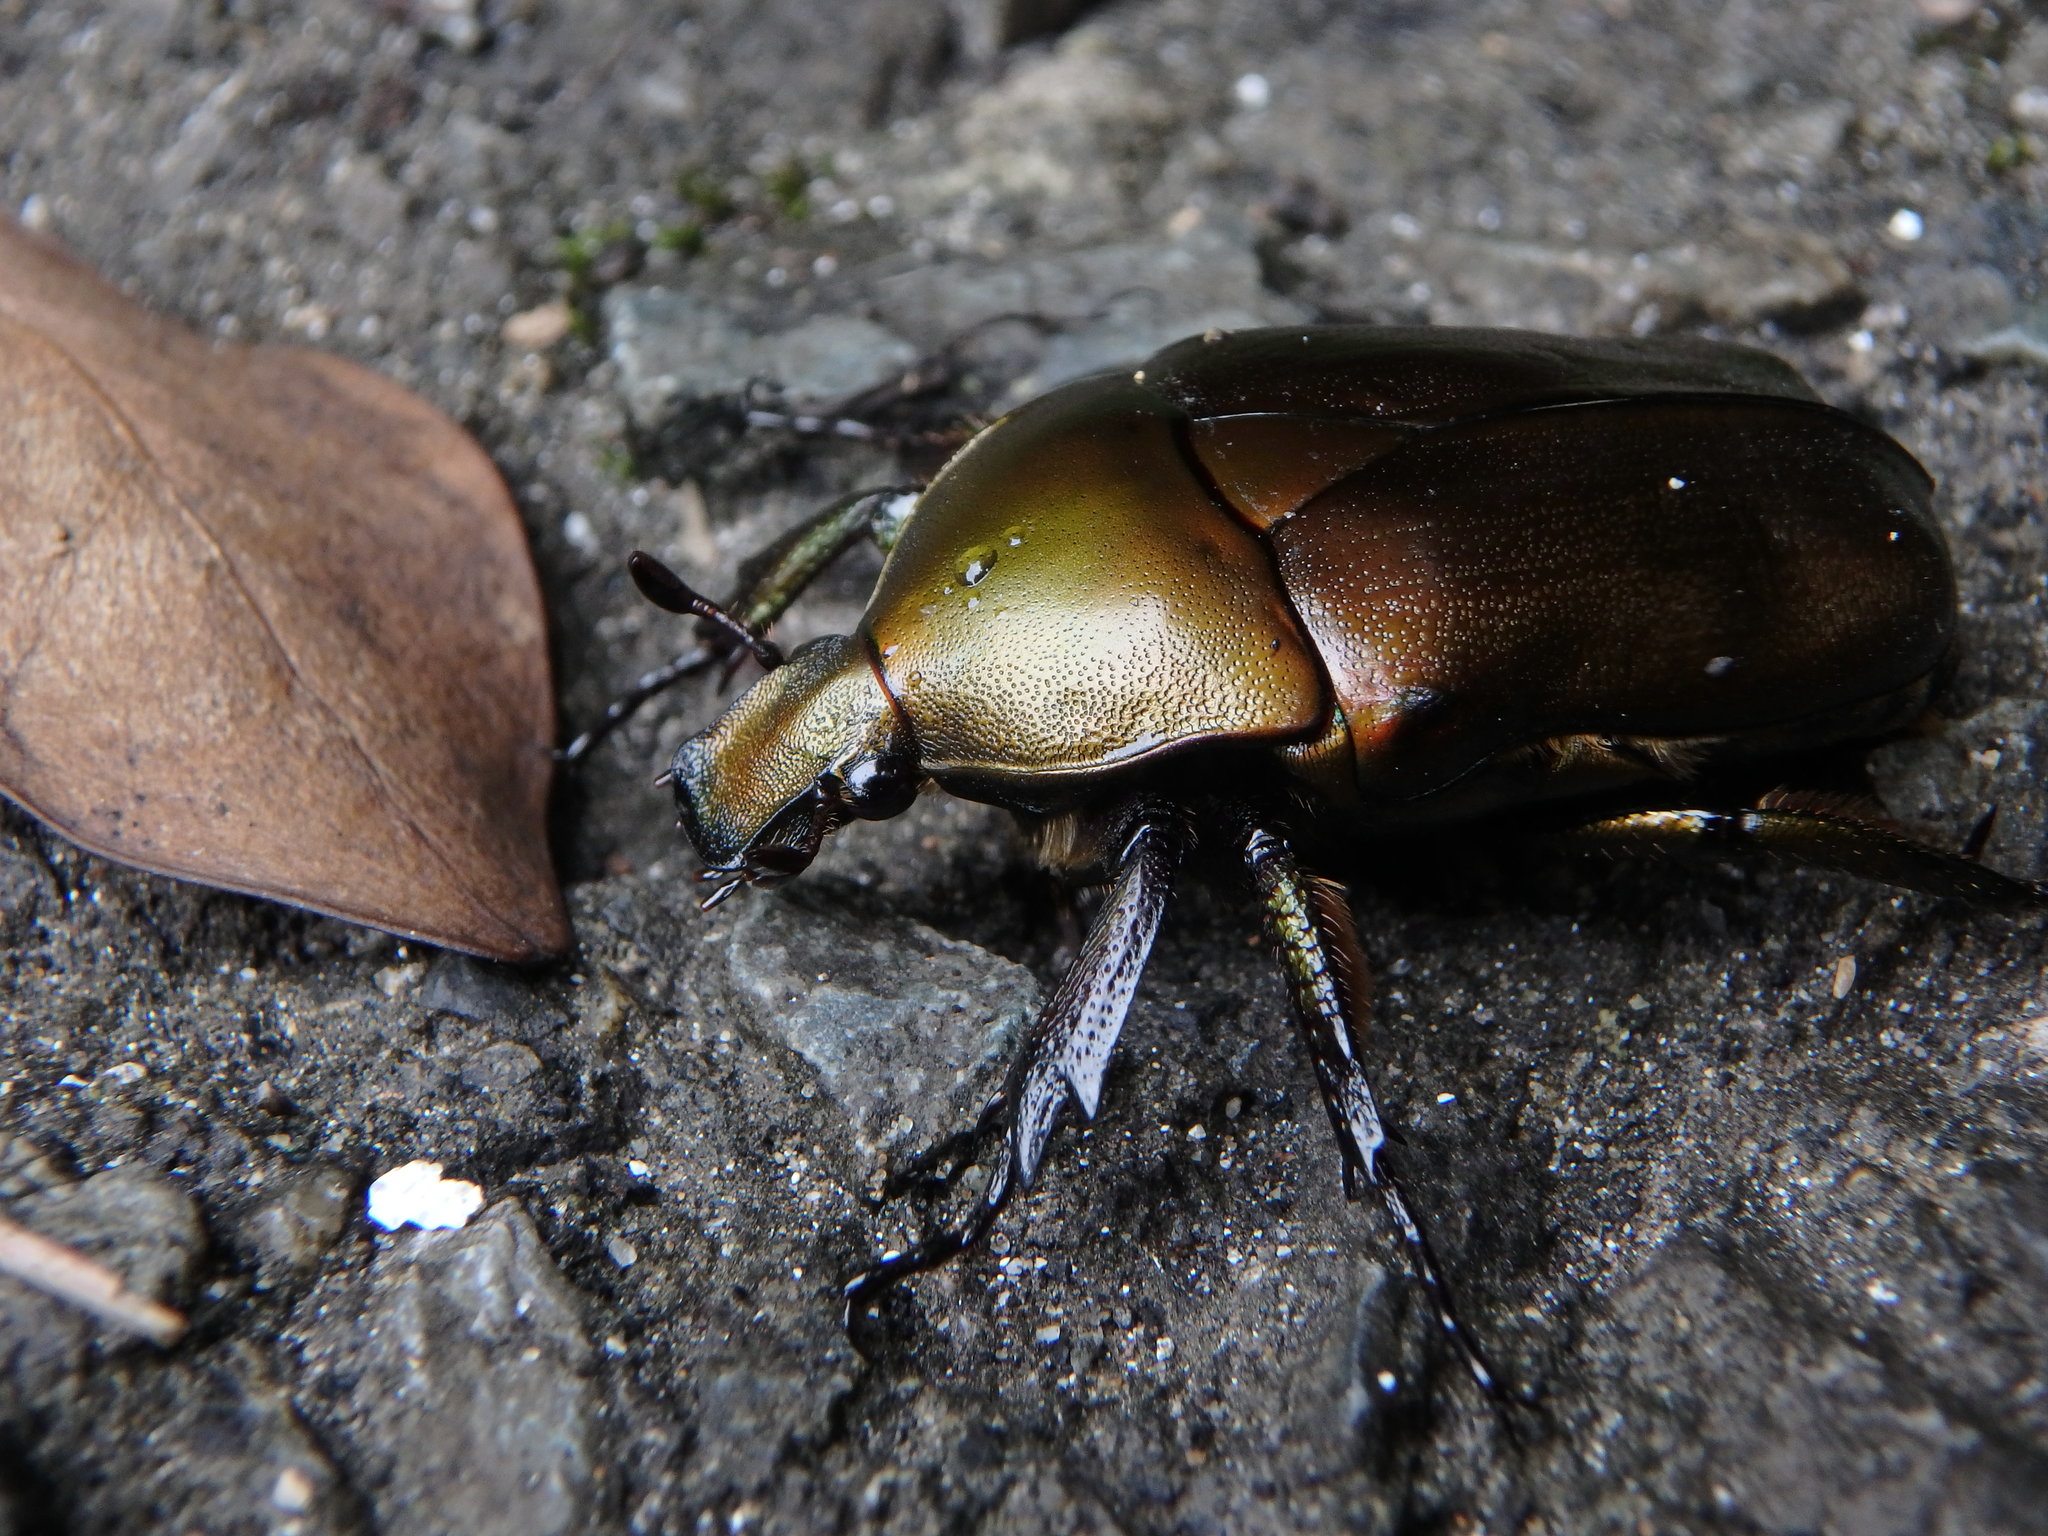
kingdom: Animalia
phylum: Arthropoda
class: Insecta
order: Coleoptera
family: Scarabaeidae
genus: Pseudotorynorrhina
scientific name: Pseudotorynorrhina japonica
